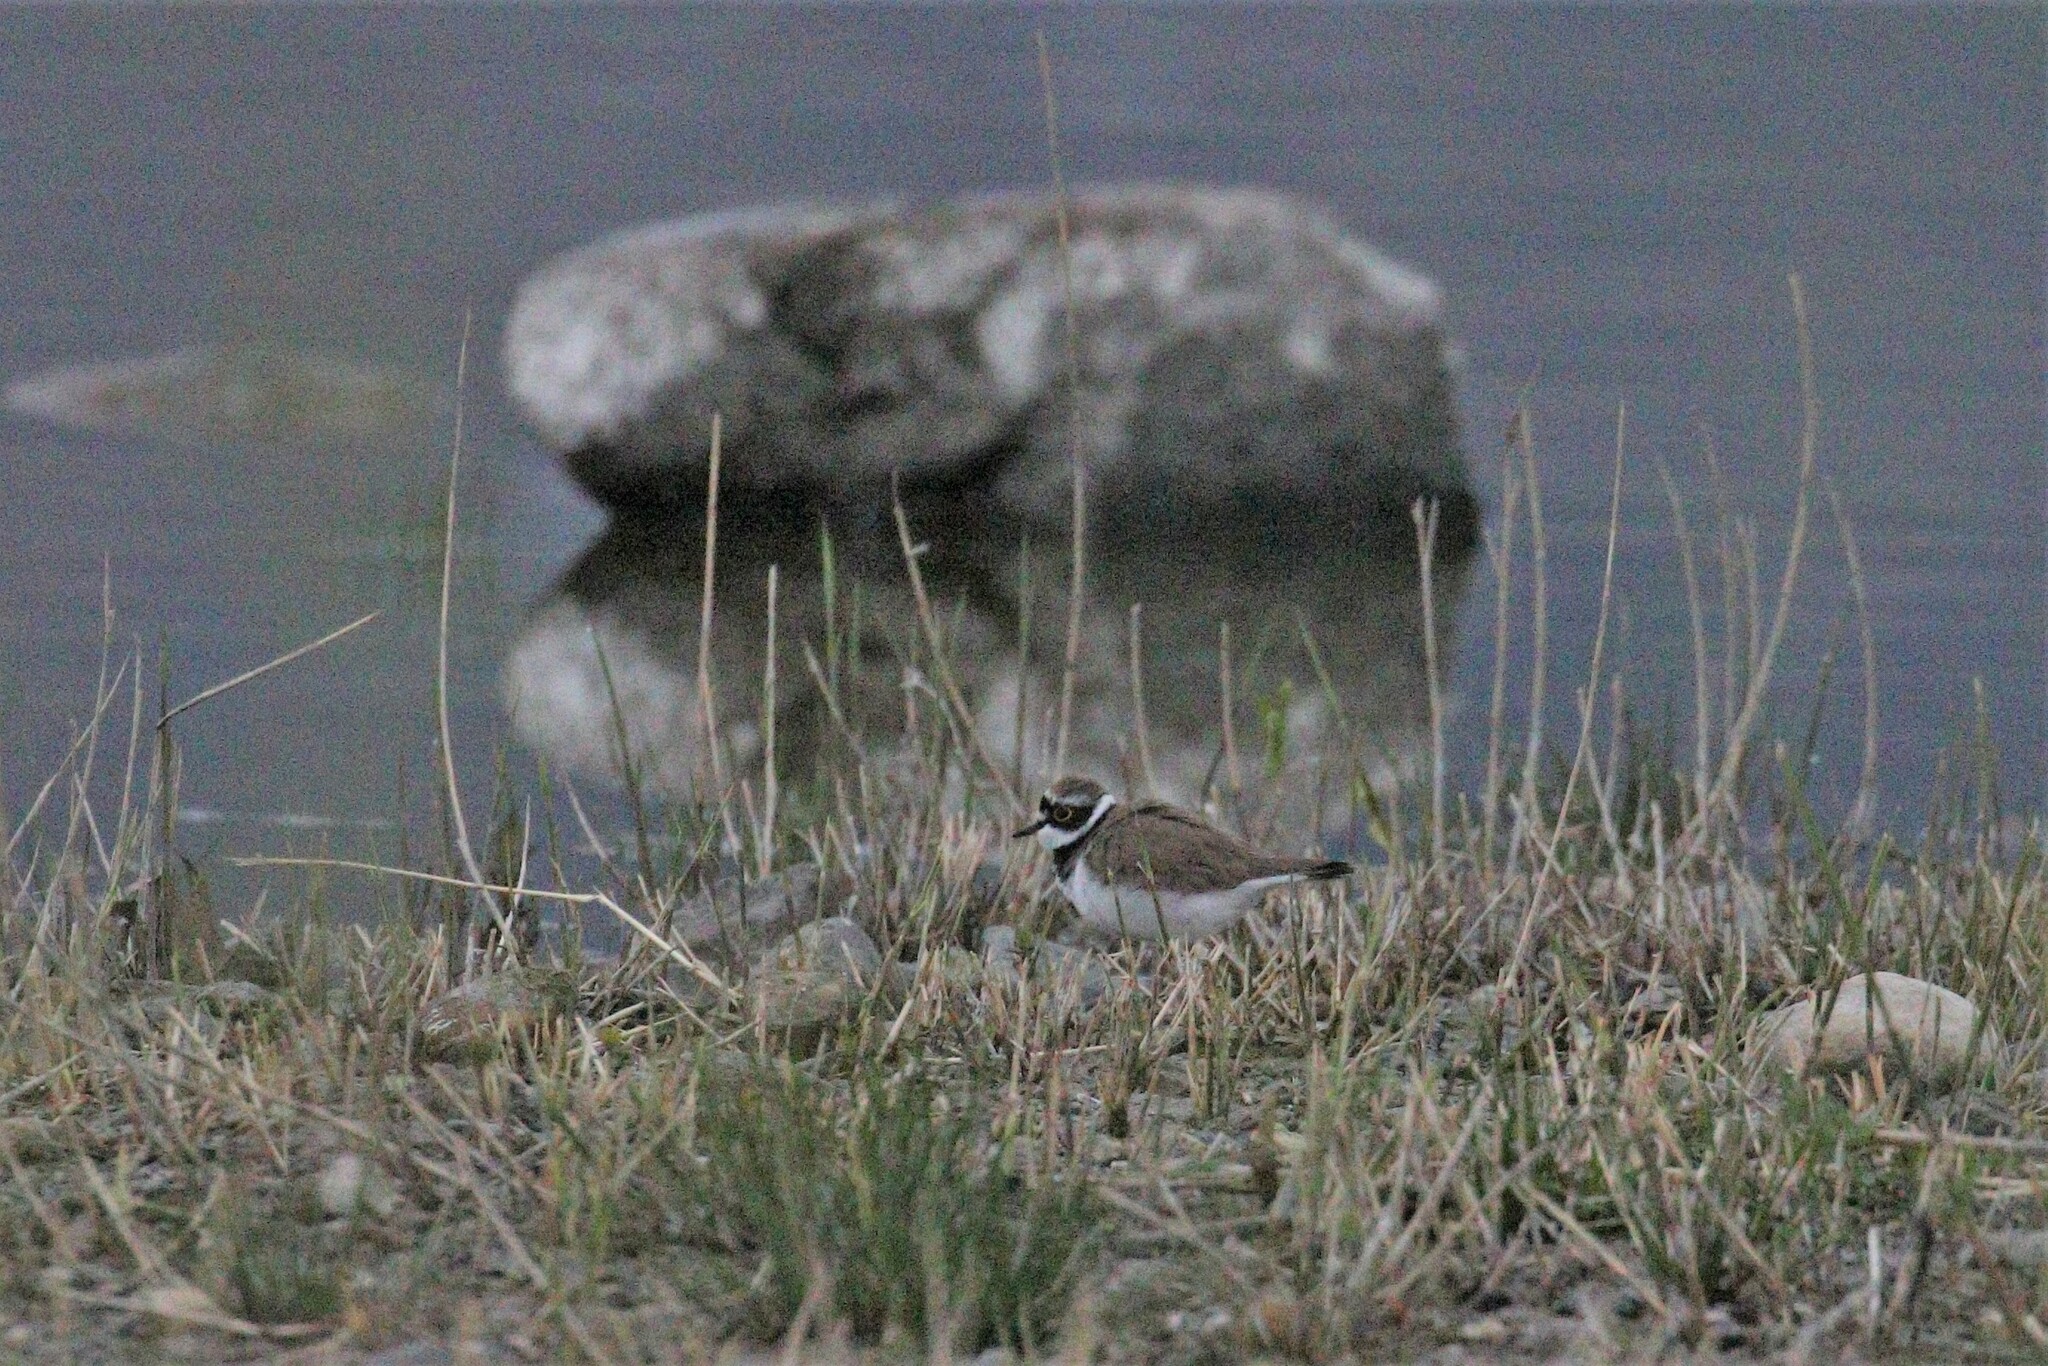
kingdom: Animalia
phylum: Chordata
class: Aves
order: Charadriiformes
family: Charadriidae
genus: Charadrius
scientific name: Charadrius dubius
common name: Little ringed plover
